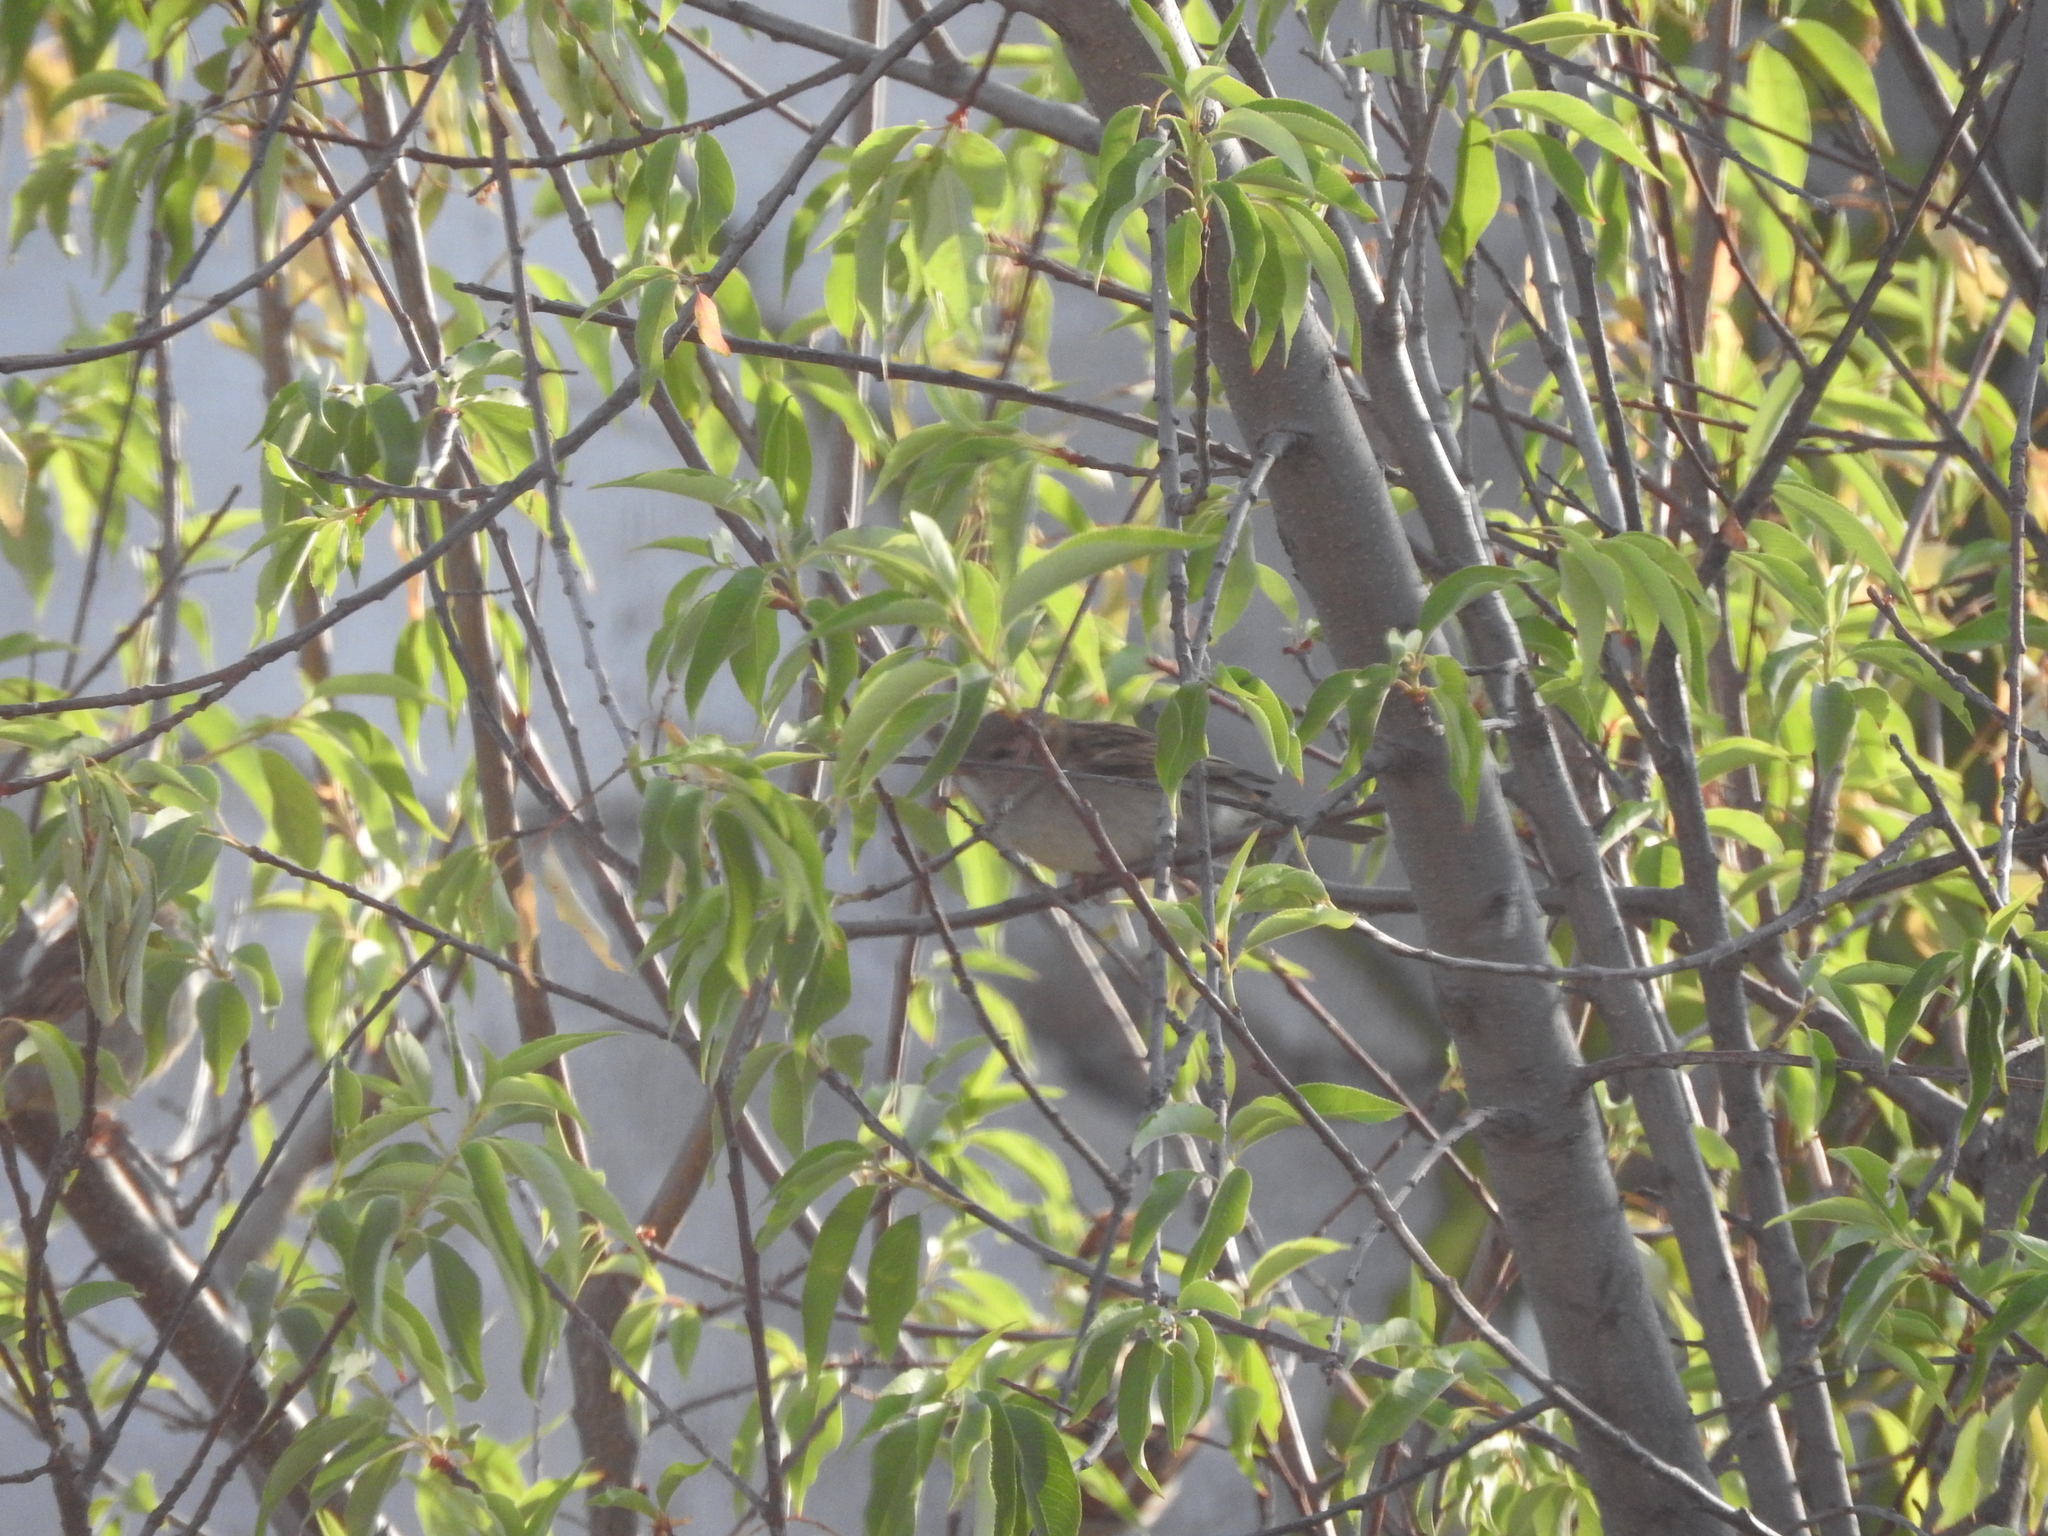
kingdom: Animalia
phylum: Chordata
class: Aves
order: Passeriformes
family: Passeridae
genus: Passer
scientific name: Passer domesticus
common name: House sparrow
